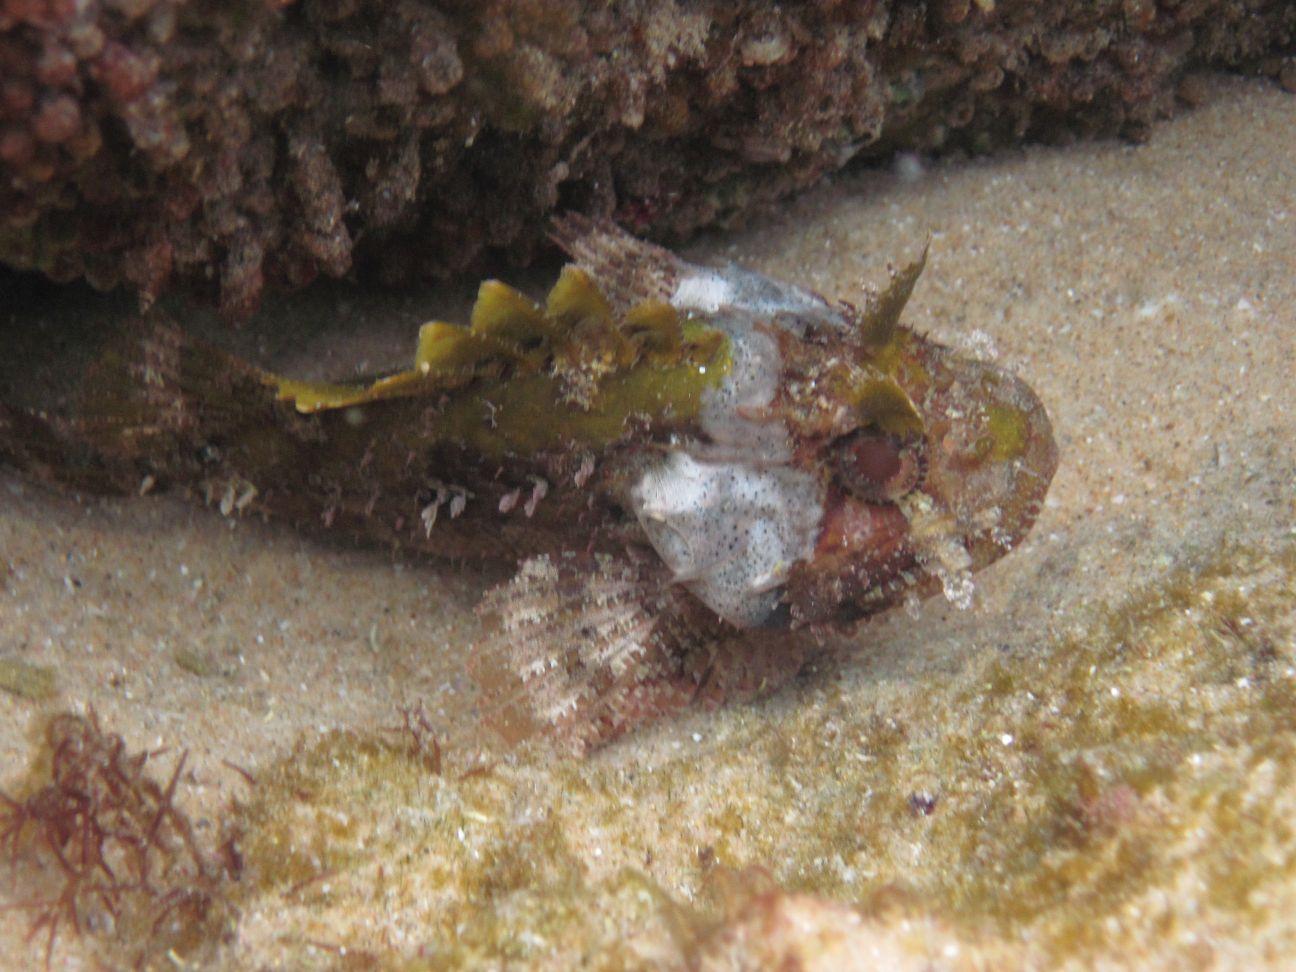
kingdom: Animalia
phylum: Chordata
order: Scorpaeniformes
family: Scorpaenidae
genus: Parascorpaena
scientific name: Parascorpaena mossambica
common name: Mozambique scorpionfish
